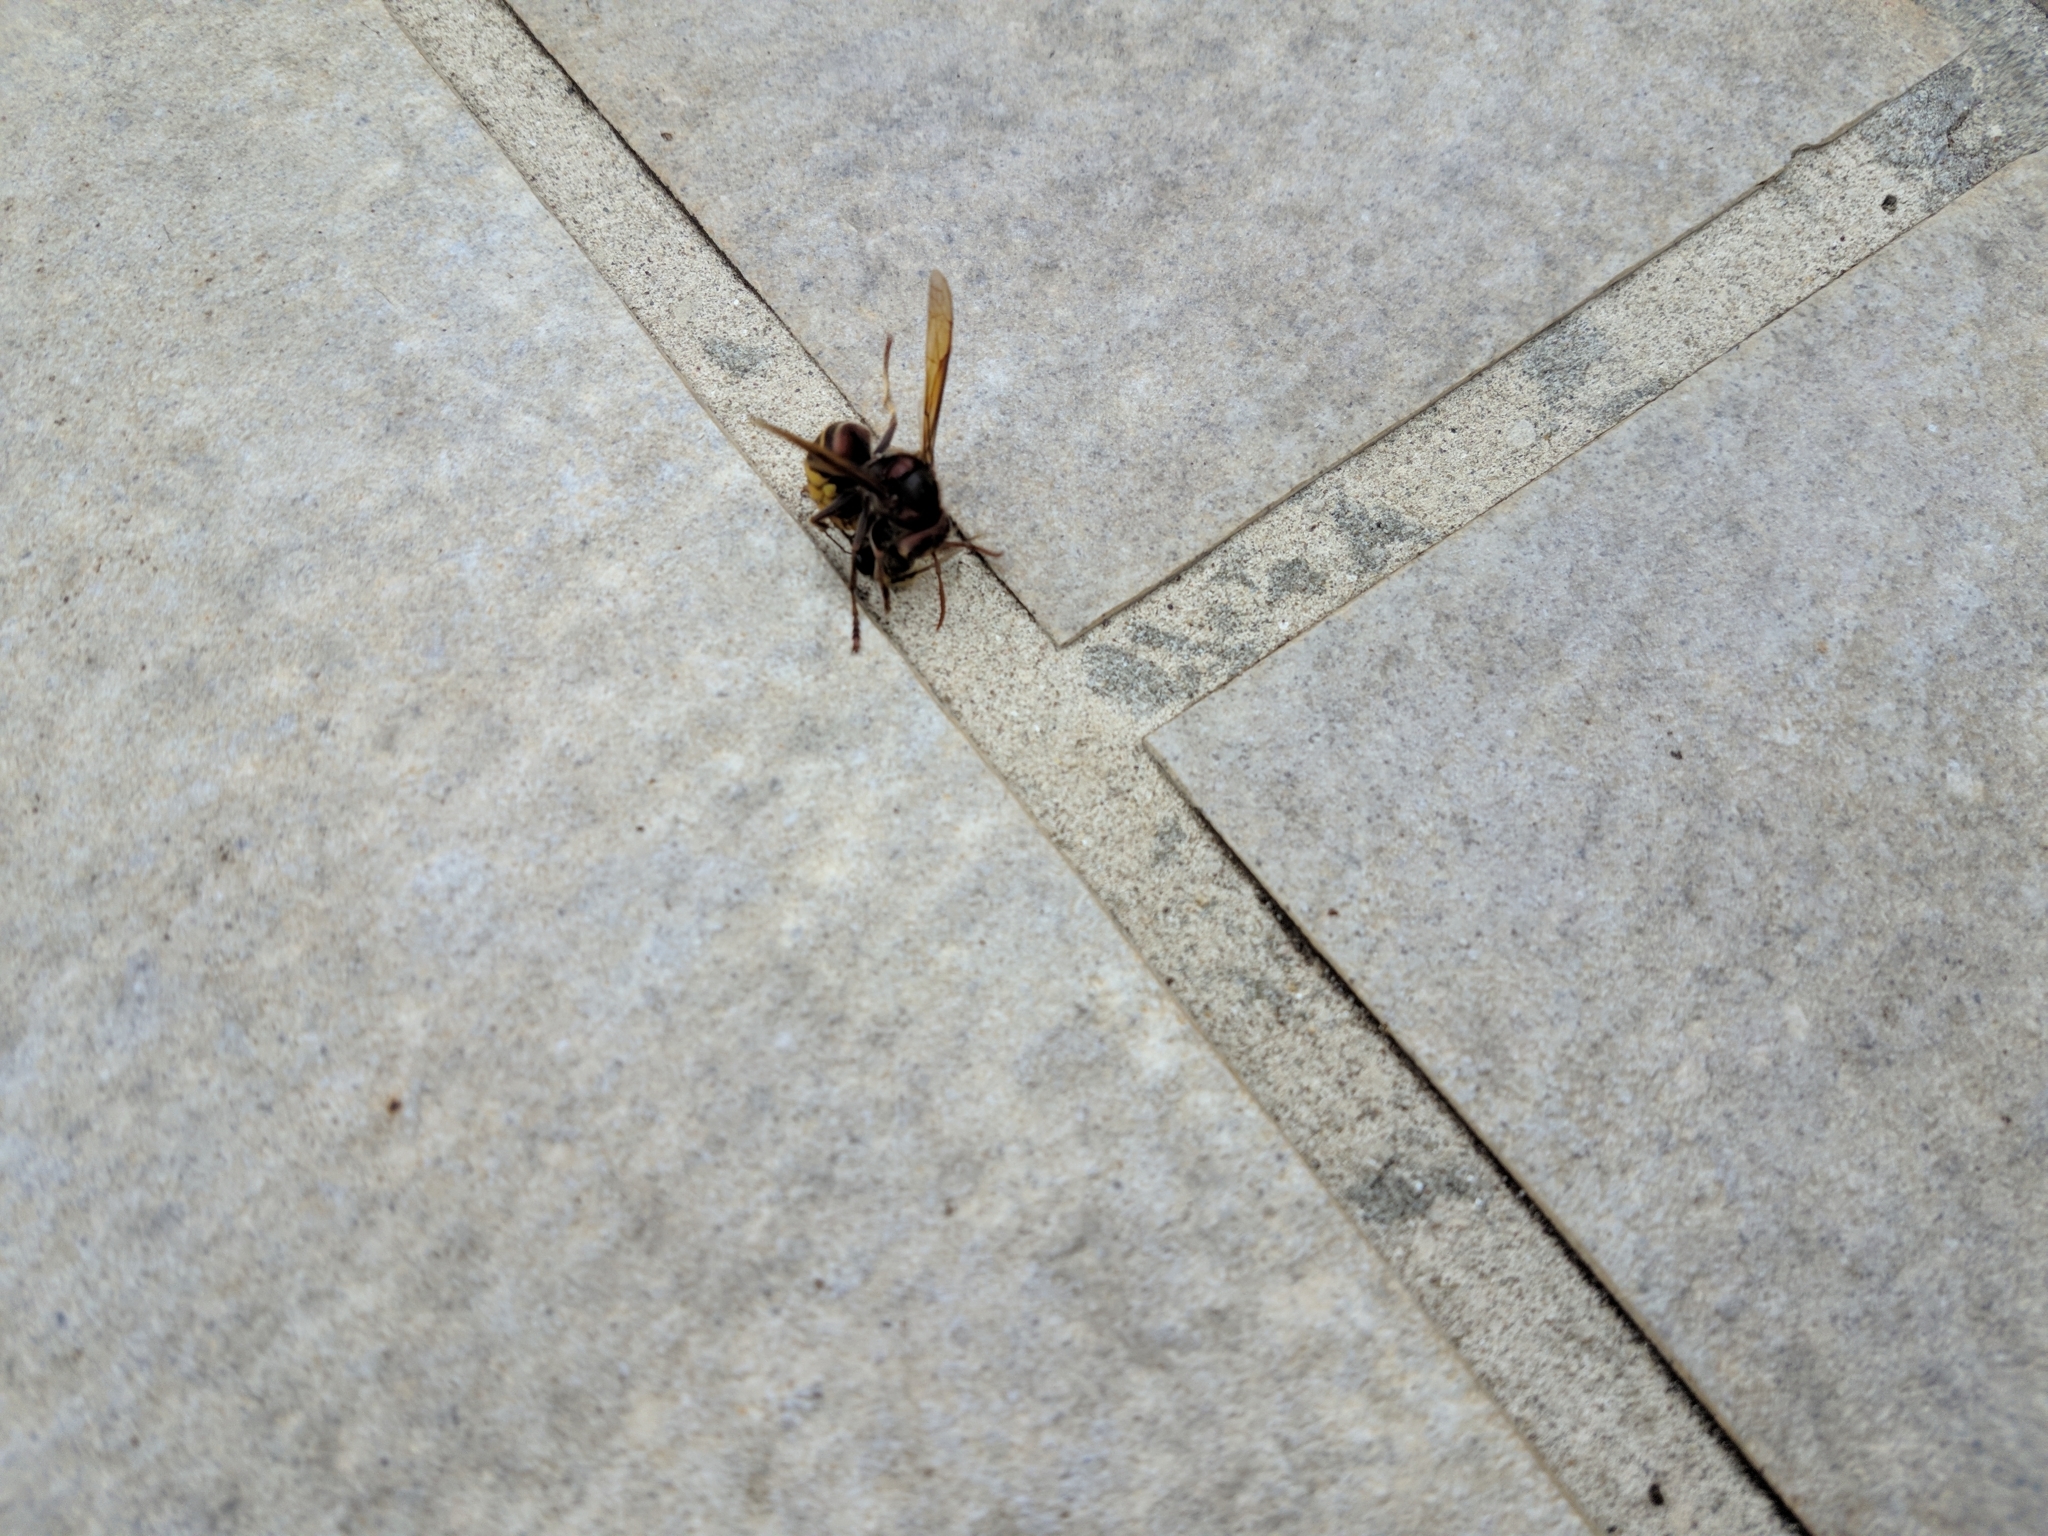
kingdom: Animalia
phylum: Arthropoda
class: Insecta
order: Hymenoptera
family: Vespidae
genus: Vespa
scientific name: Vespa crabro
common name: Hornet
